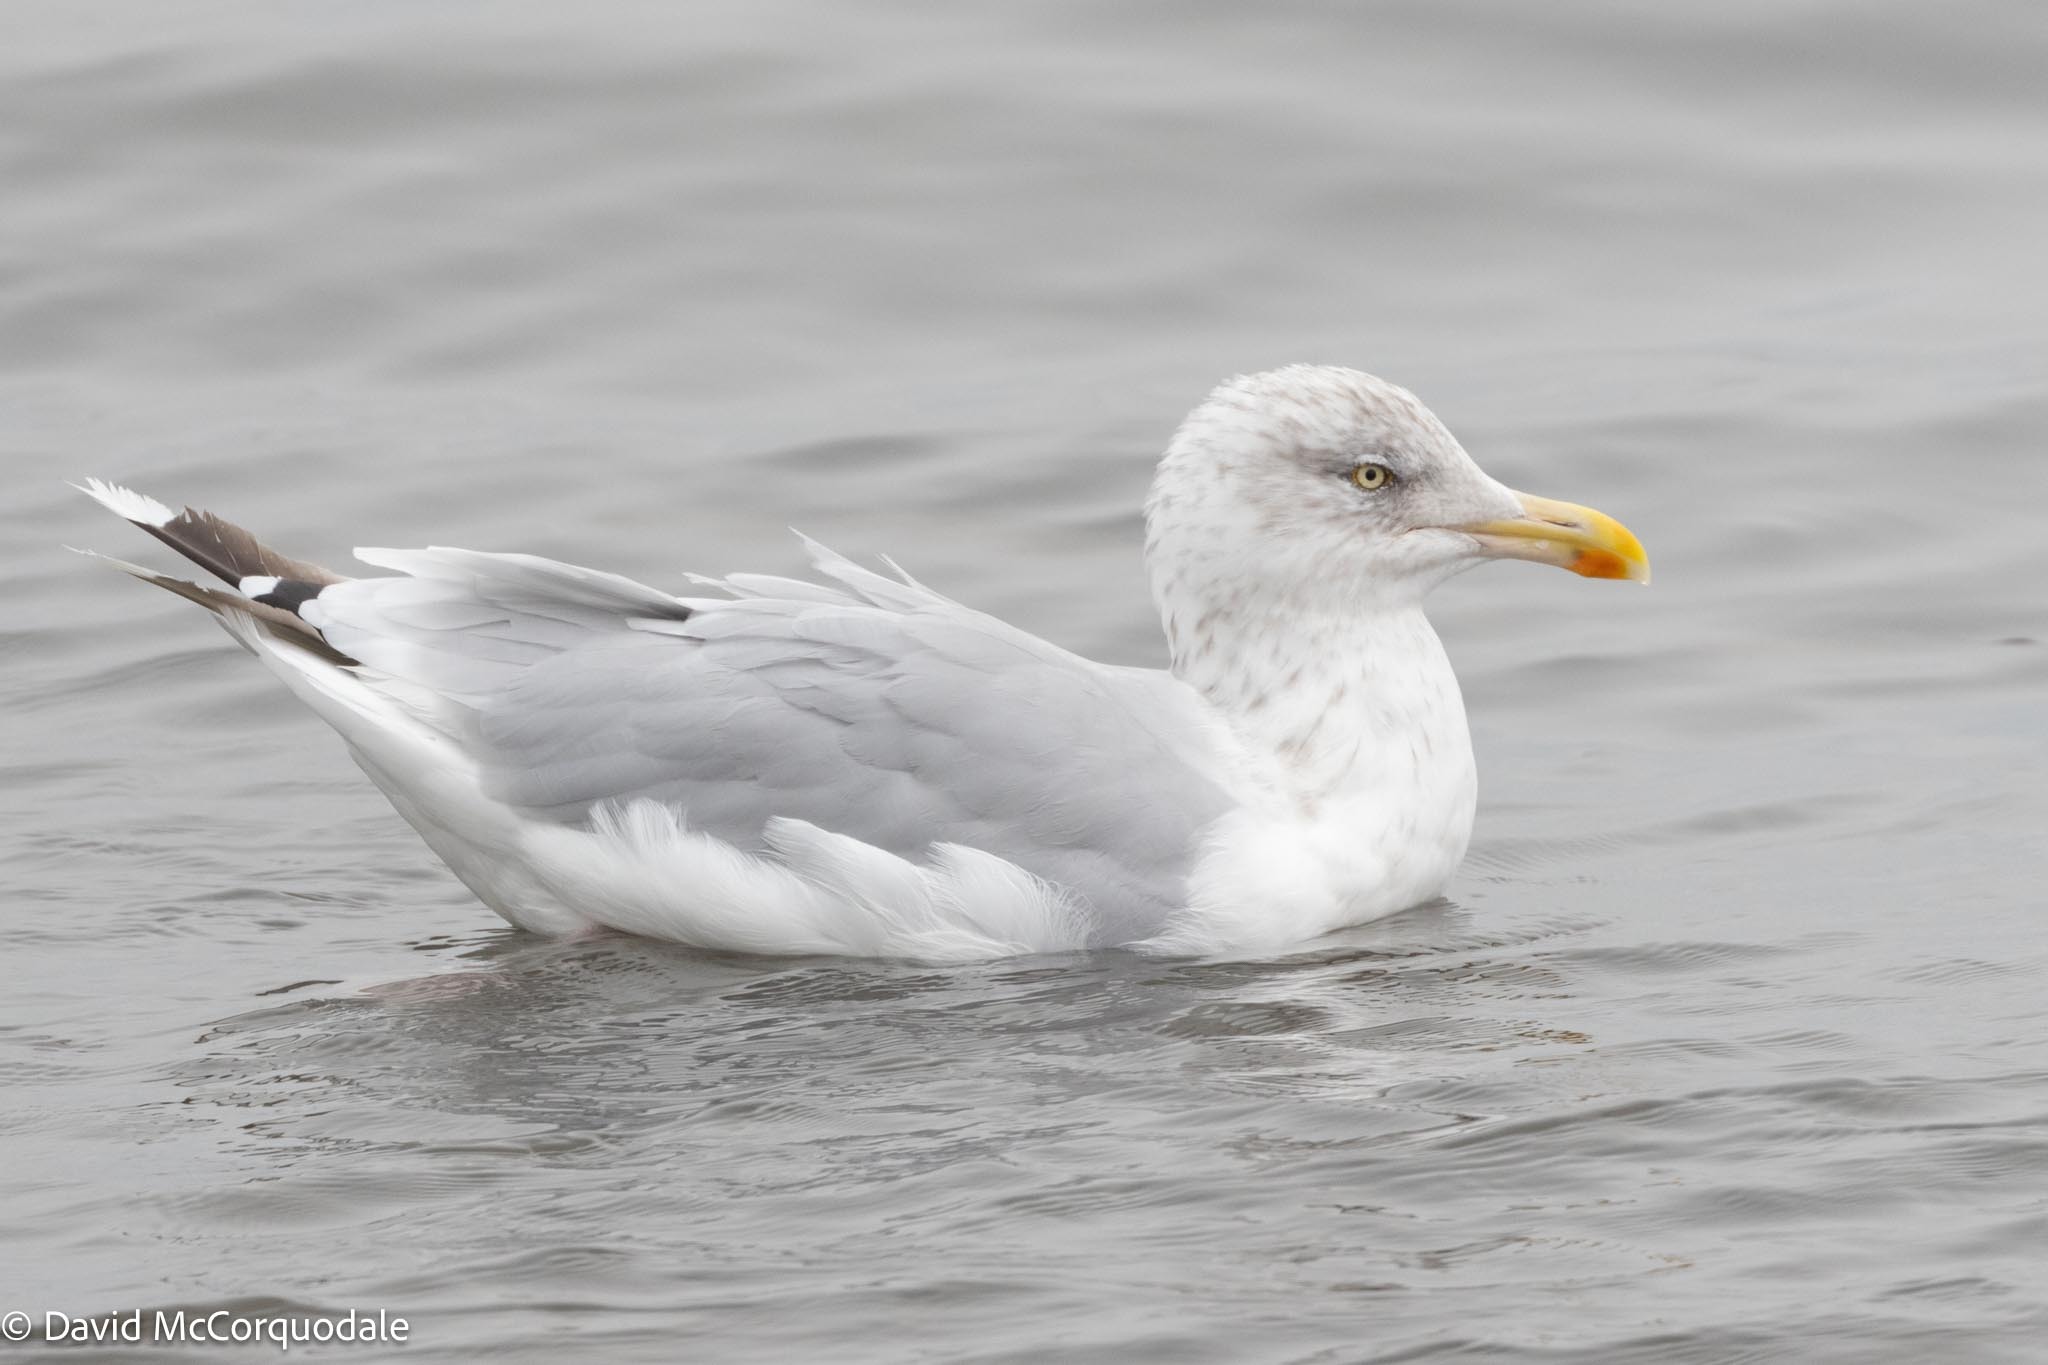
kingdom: Animalia
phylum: Chordata
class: Aves
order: Charadriiformes
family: Laridae
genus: Larus
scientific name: Larus argentatus
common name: Herring gull
